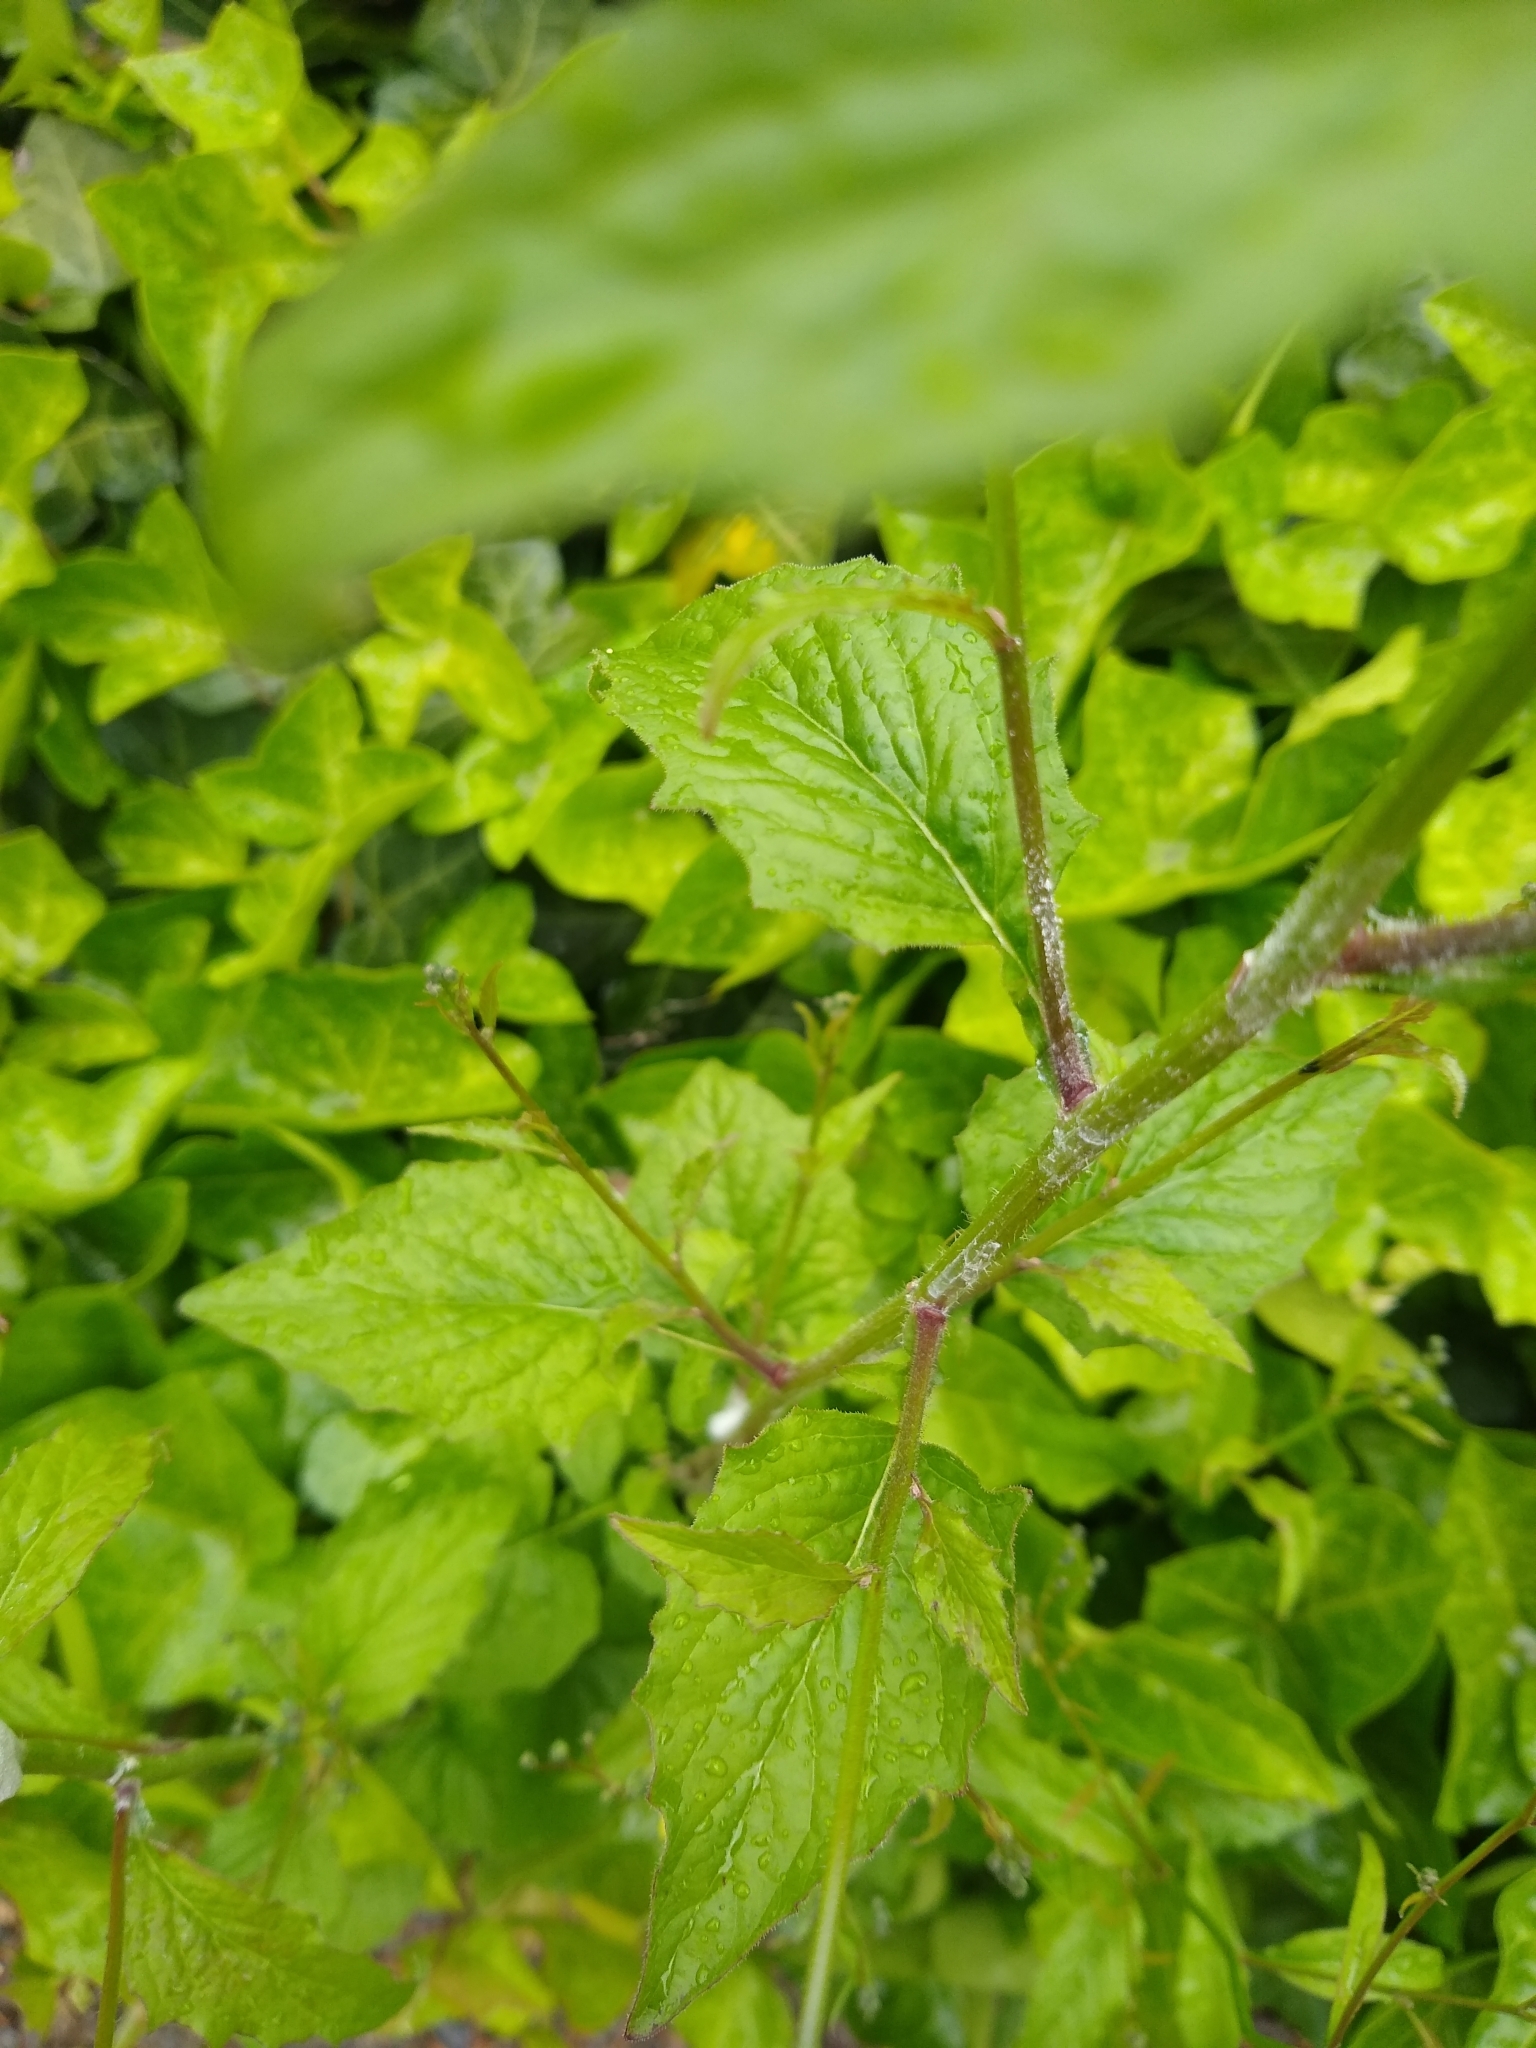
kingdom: Plantae
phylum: Tracheophyta
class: Magnoliopsida
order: Asterales
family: Asteraceae
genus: Lapsana
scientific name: Lapsana communis
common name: Nipplewort
